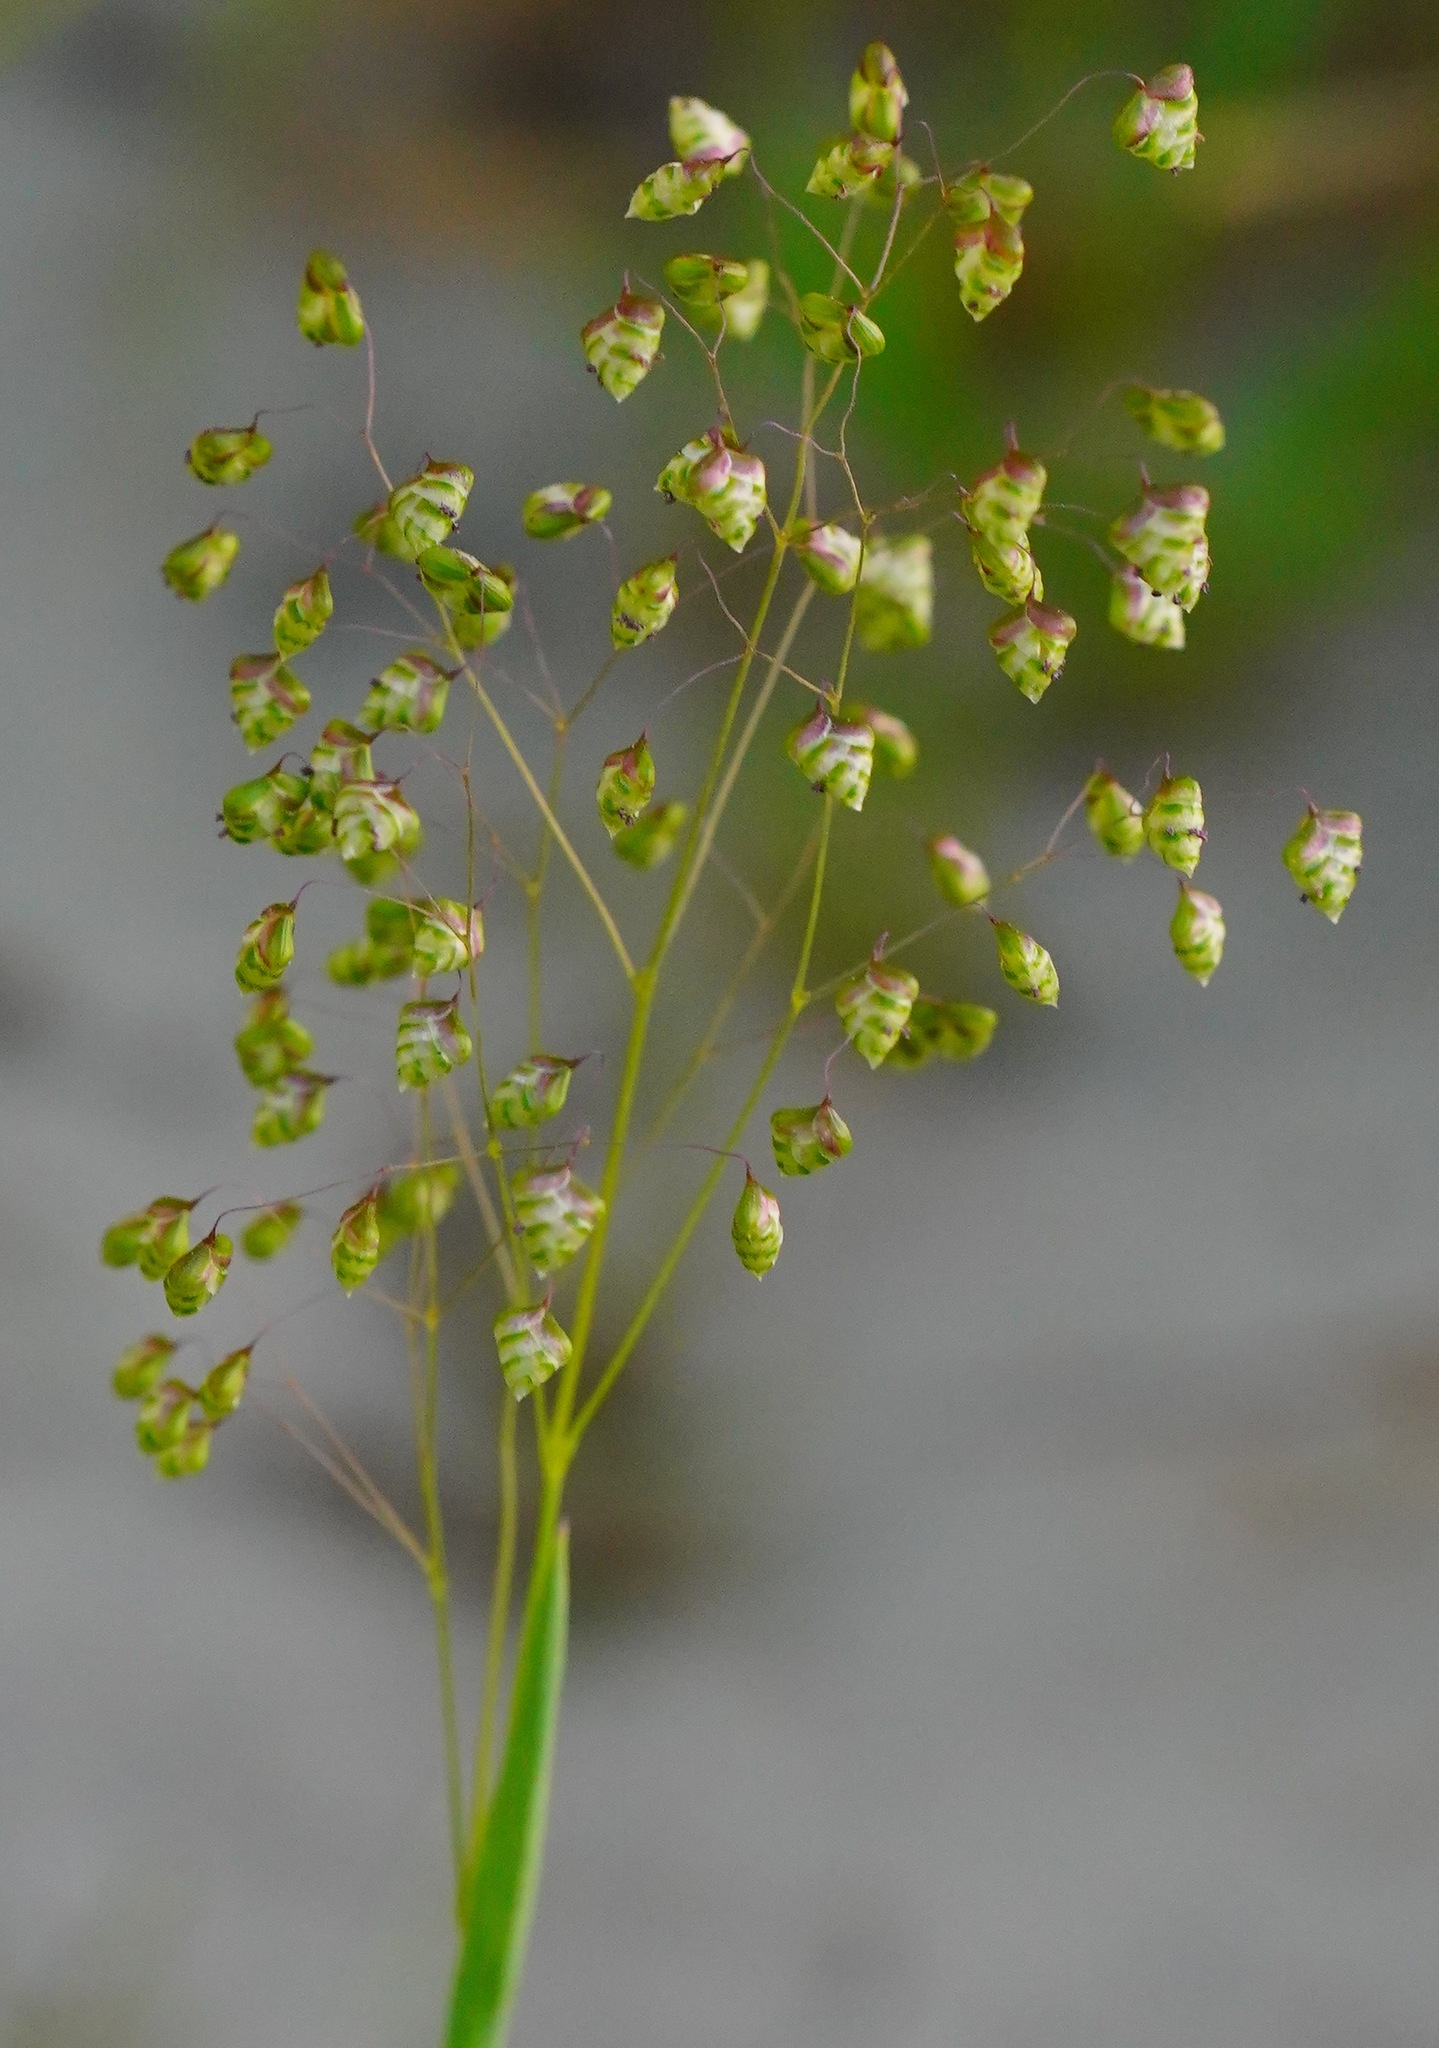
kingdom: Plantae
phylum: Tracheophyta
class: Liliopsida
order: Poales
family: Poaceae
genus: Briza
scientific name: Briza minor
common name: Lesser quaking-grass
